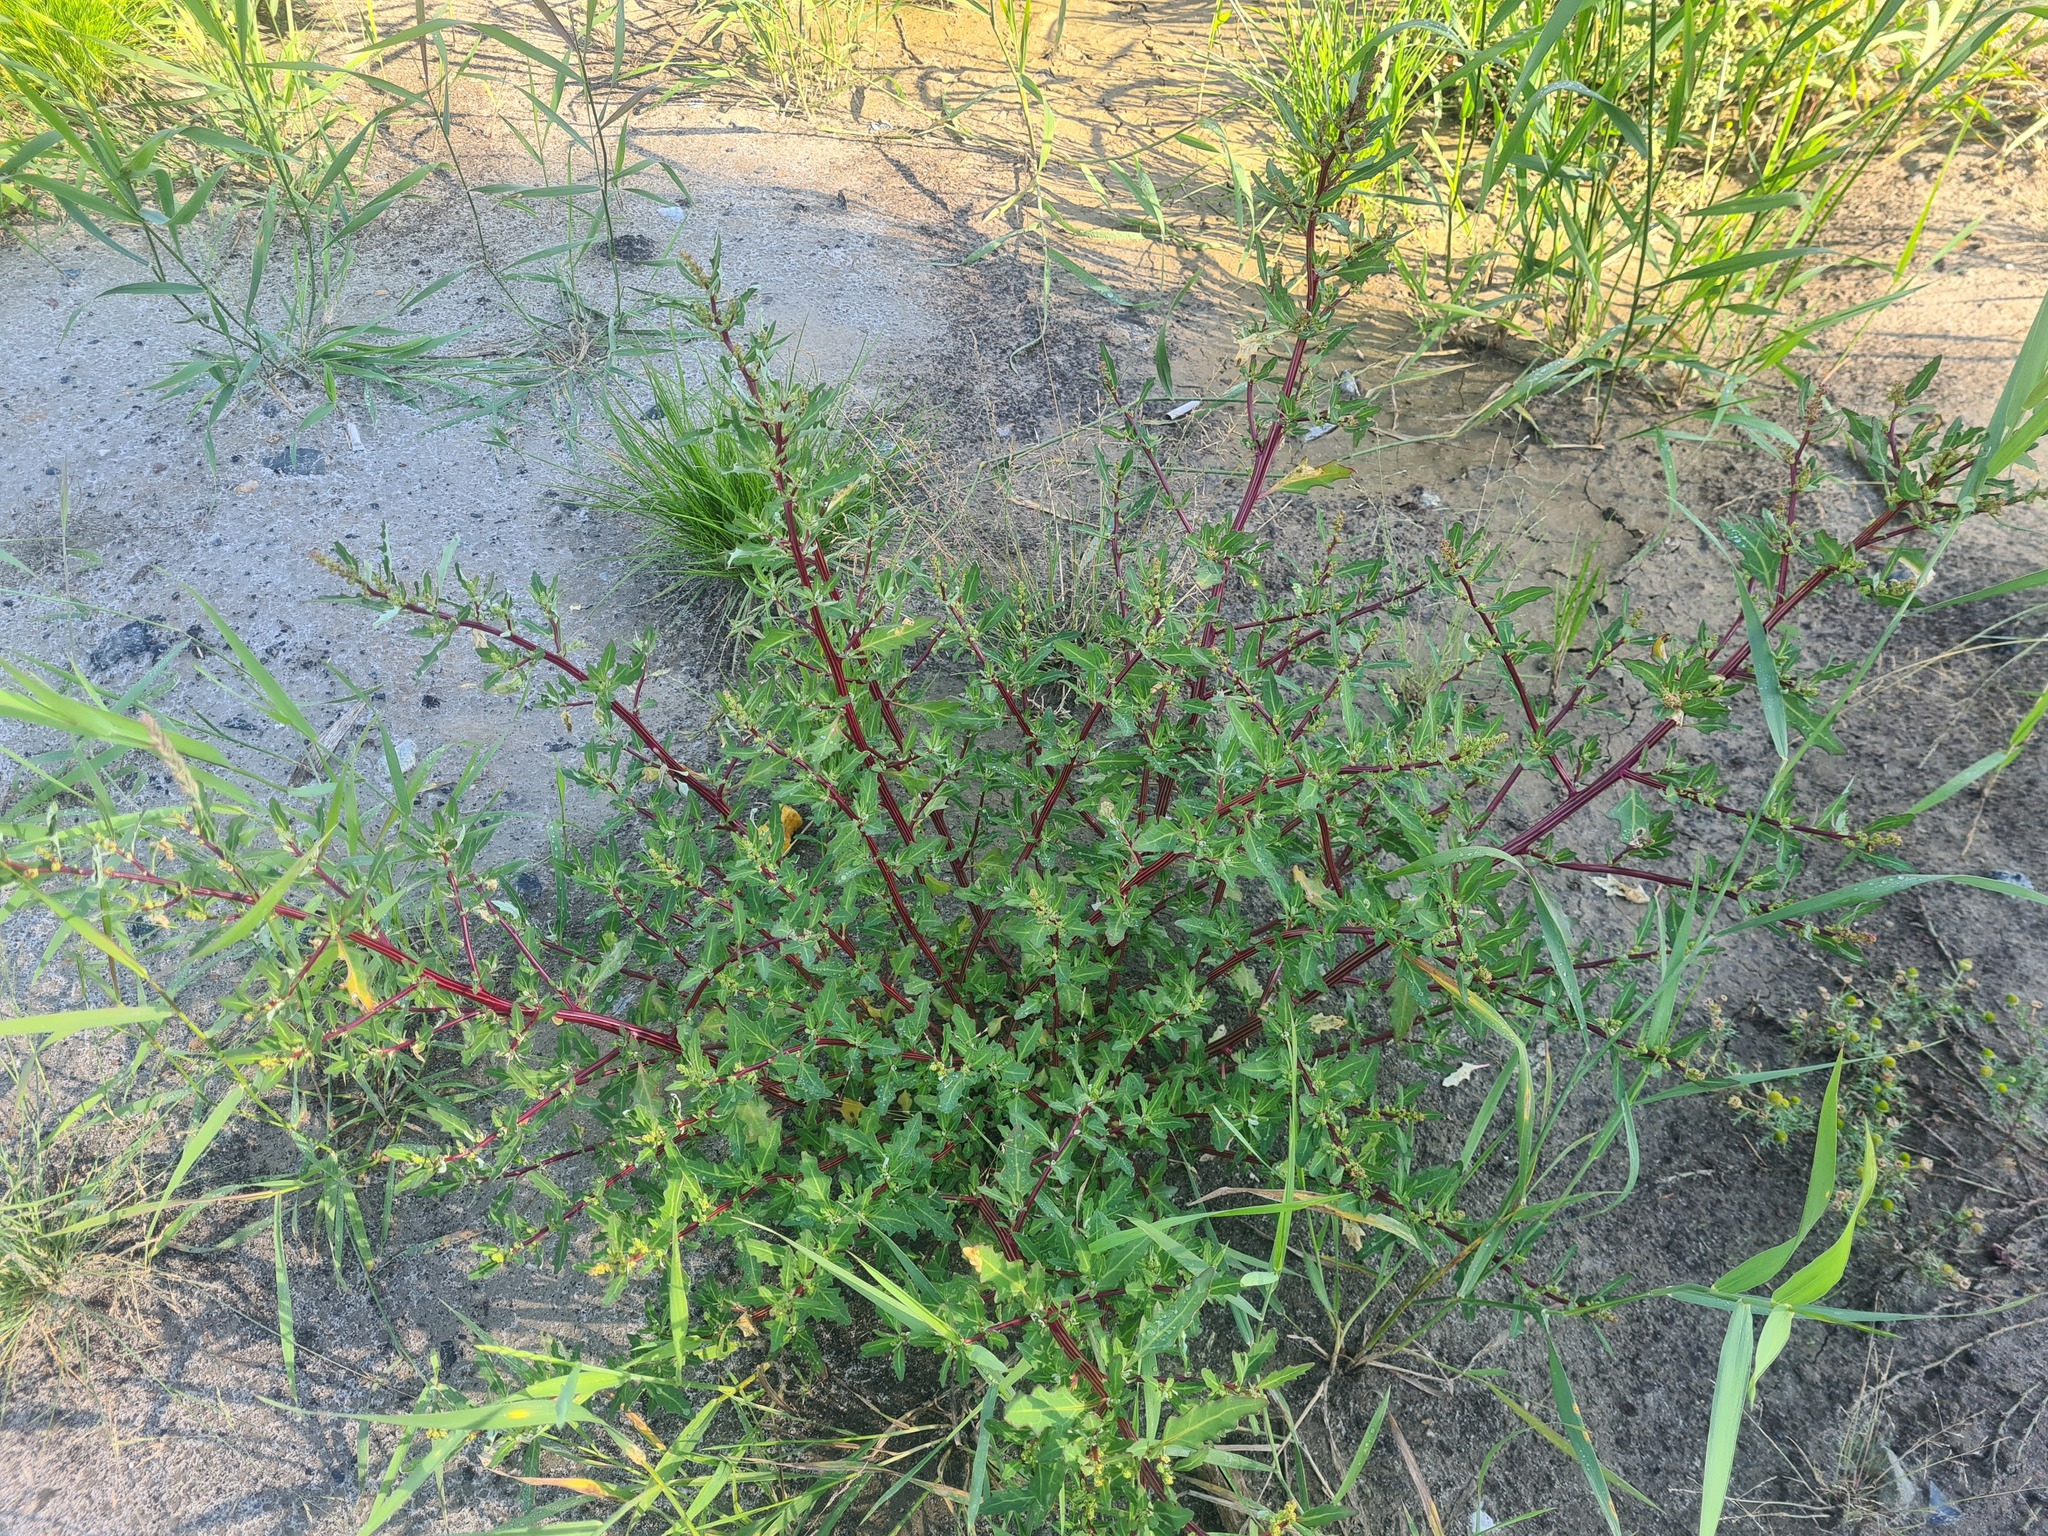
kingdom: Plantae
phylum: Tracheophyta
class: Magnoliopsida
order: Caryophyllales
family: Amaranthaceae
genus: Oxybasis
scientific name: Oxybasis glauca
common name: Glaucous goosefoot
